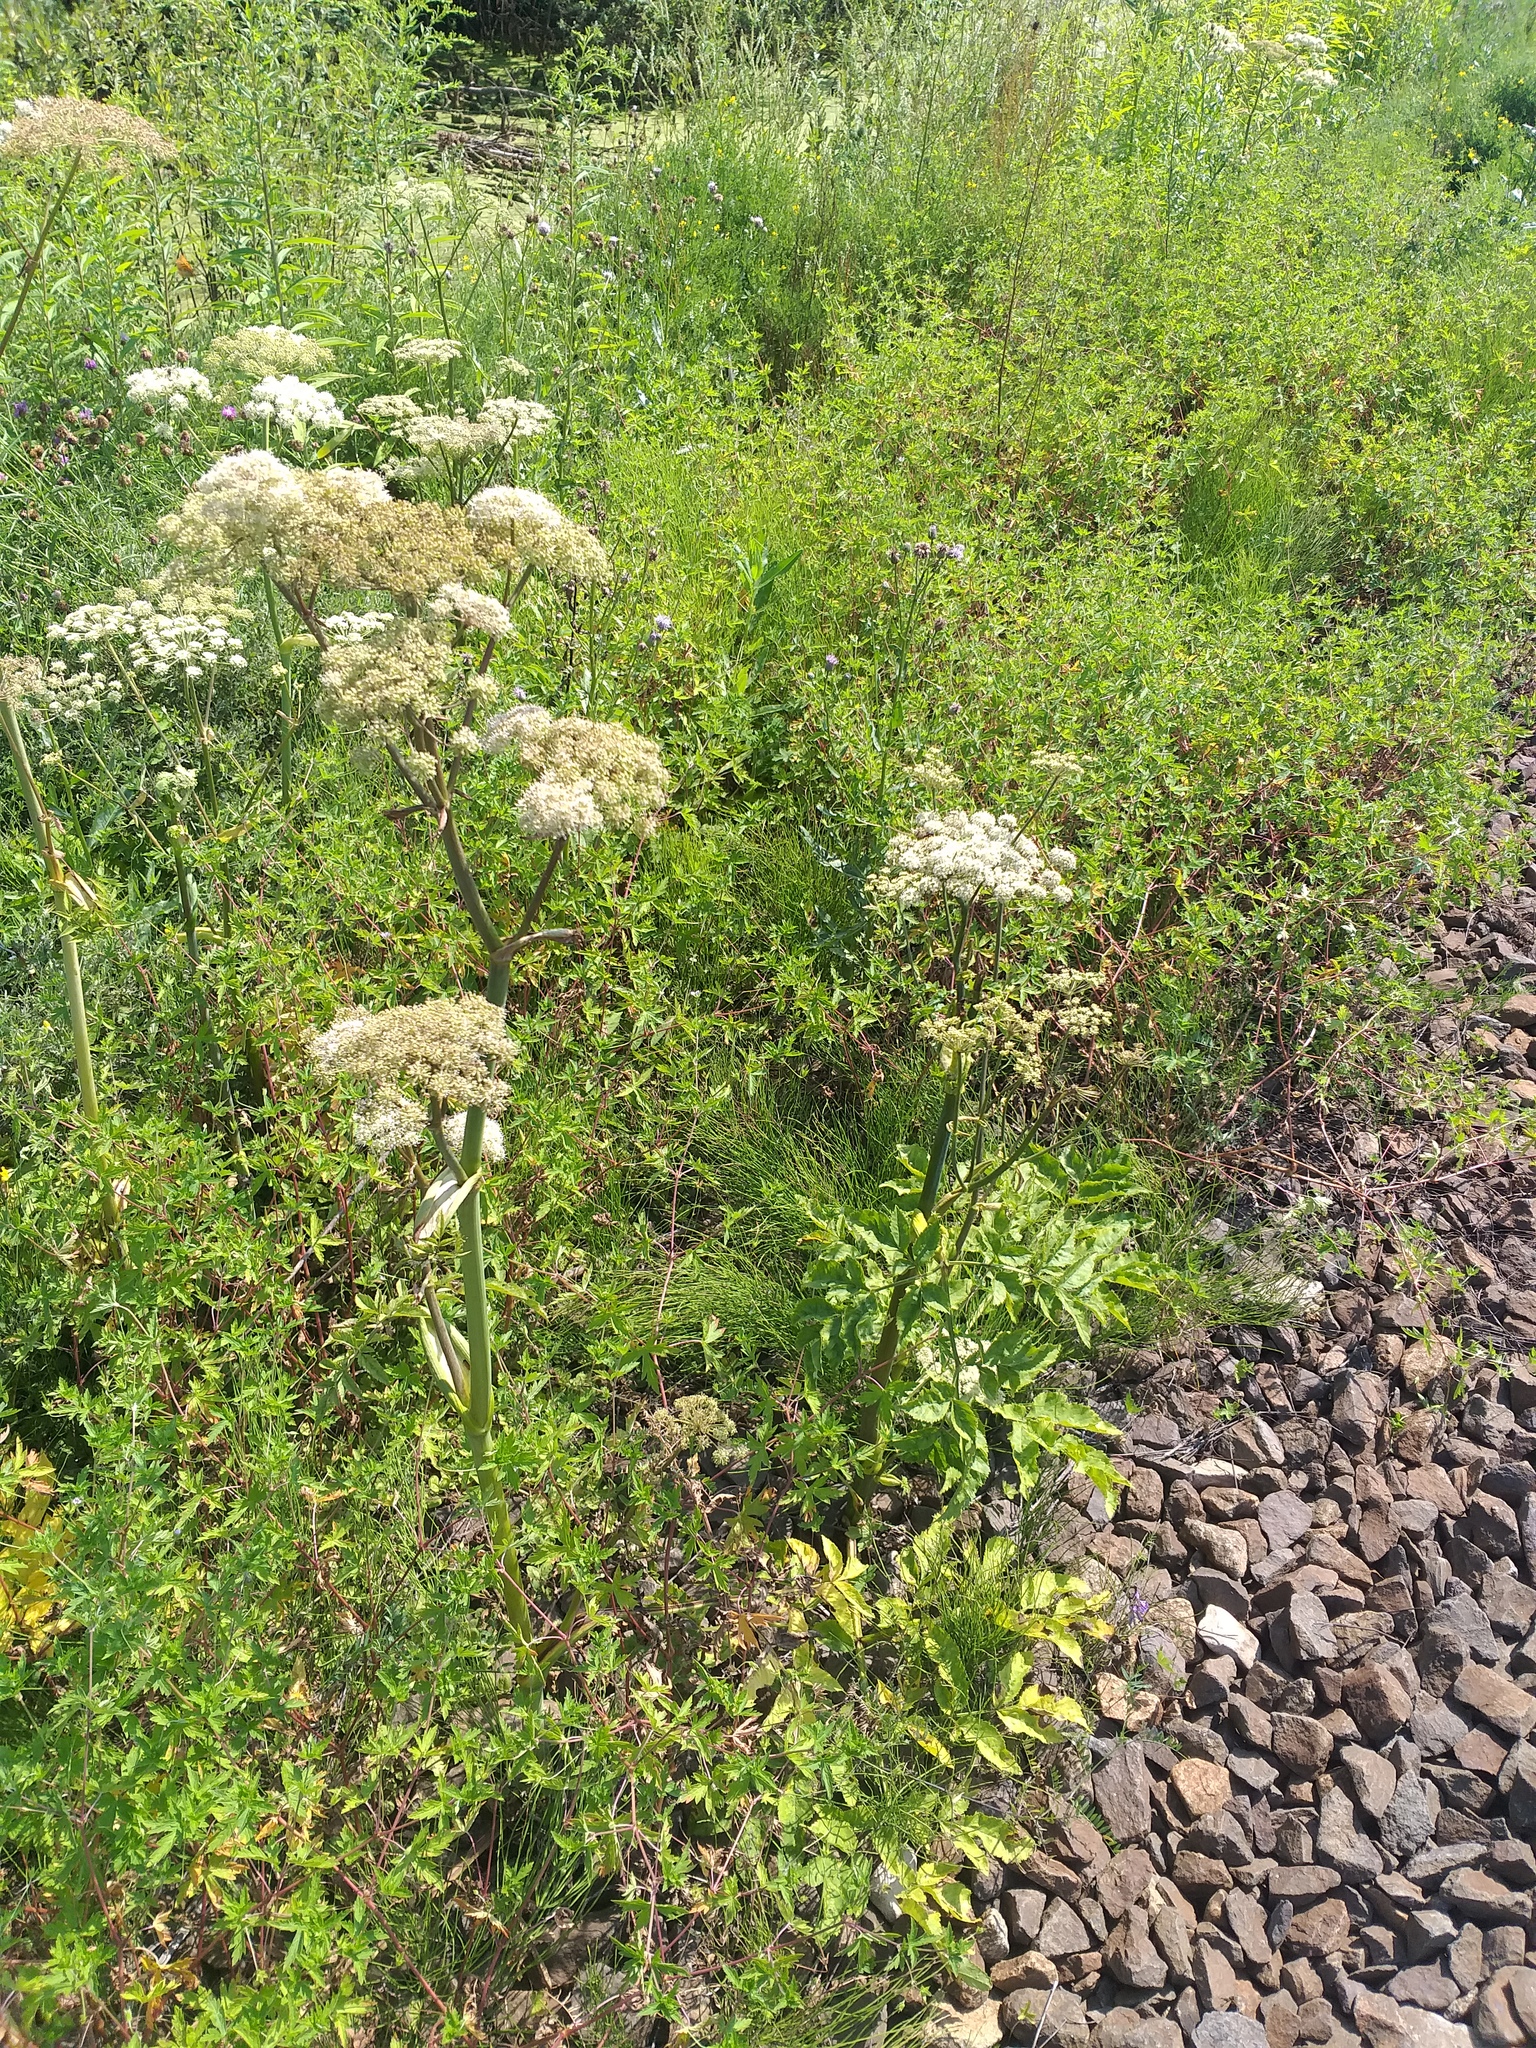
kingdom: Plantae
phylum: Tracheophyta
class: Magnoliopsida
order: Apiales
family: Apiaceae
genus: Angelica
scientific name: Angelica sylvestris
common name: Wild angelica
